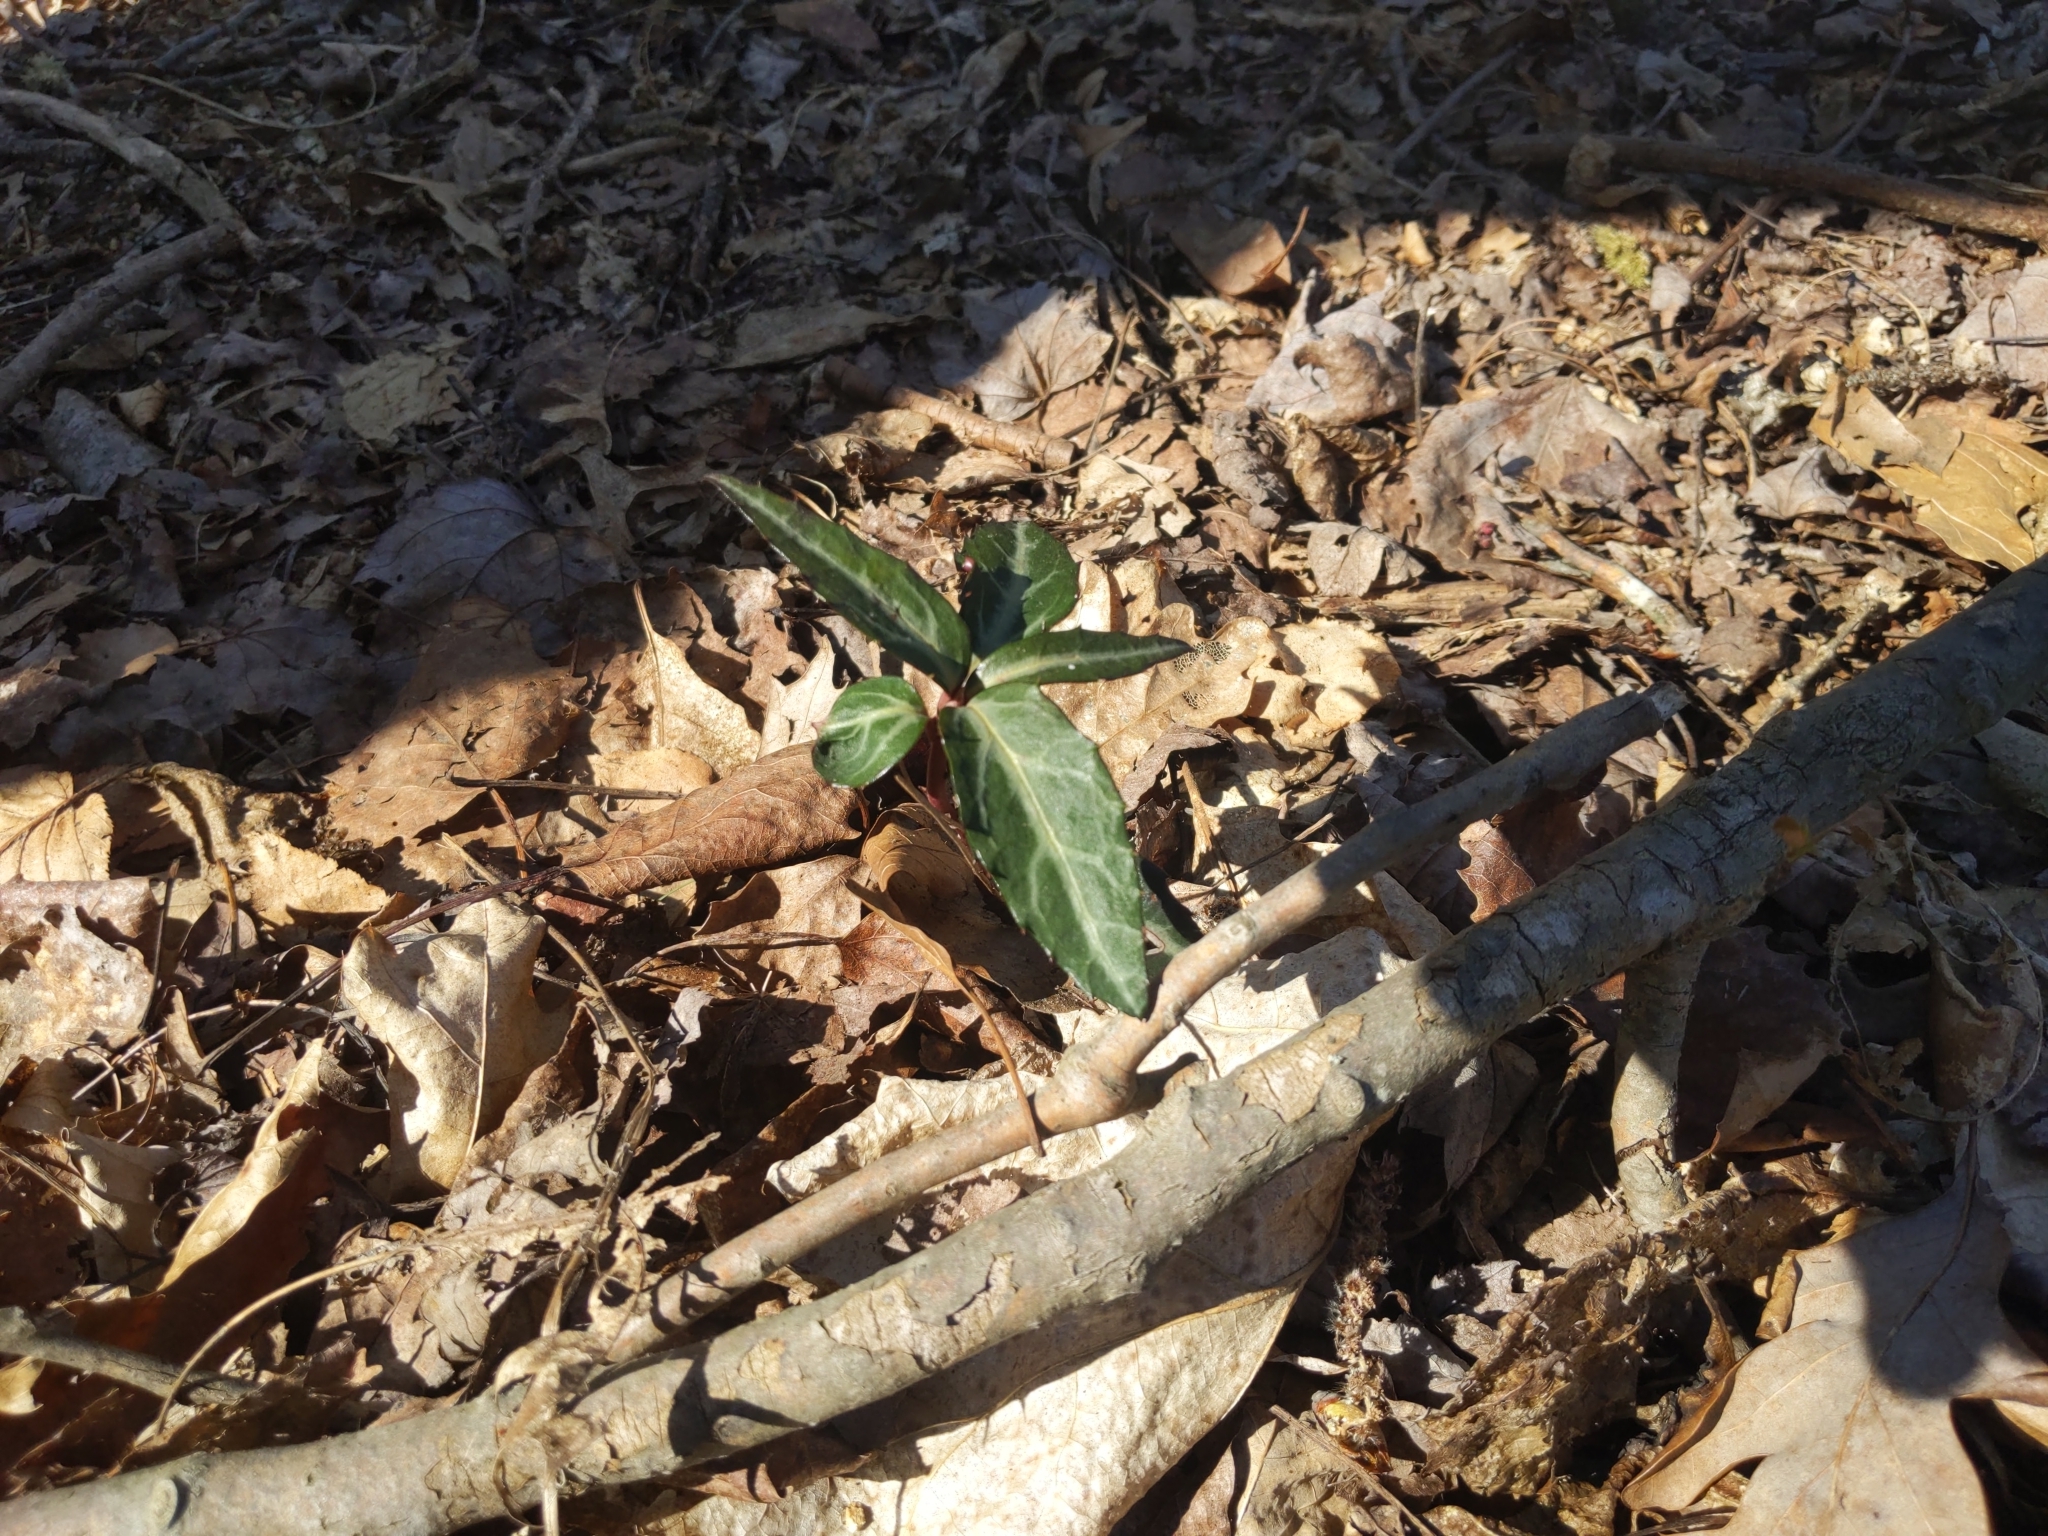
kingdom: Plantae
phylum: Tracheophyta
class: Magnoliopsida
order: Ericales
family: Ericaceae
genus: Chimaphila
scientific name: Chimaphila maculata
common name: Spotted pipsissewa
